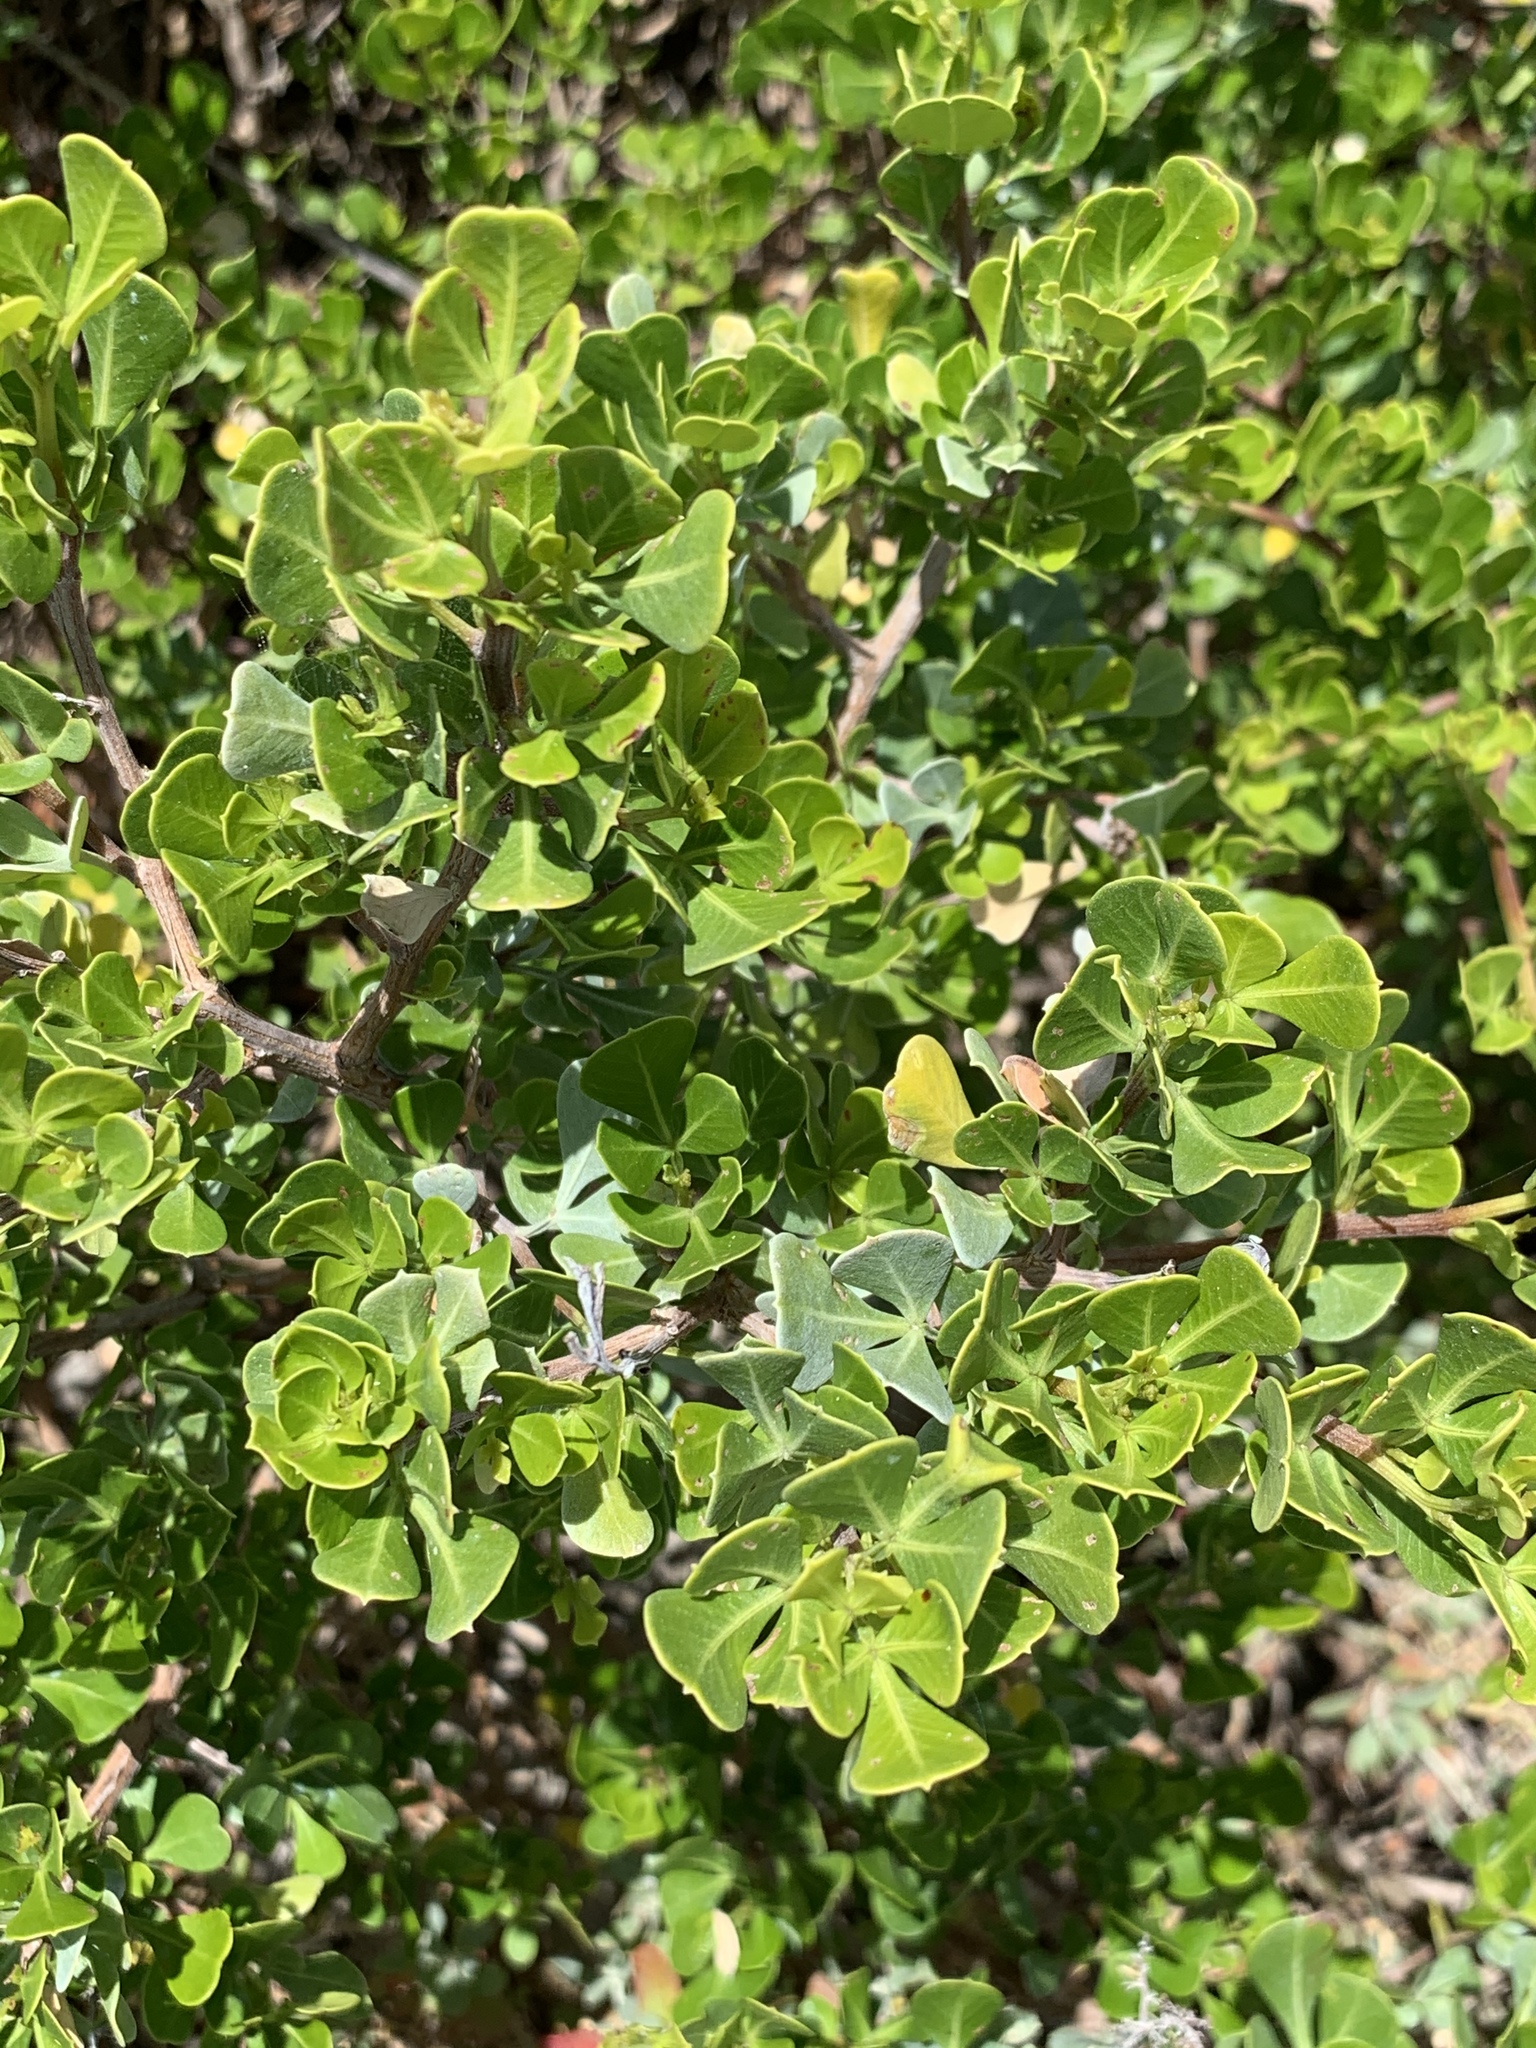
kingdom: Plantae
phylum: Tracheophyta
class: Magnoliopsida
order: Sapindales
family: Anacardiaceae
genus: Searsia
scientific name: Searsia glauca
